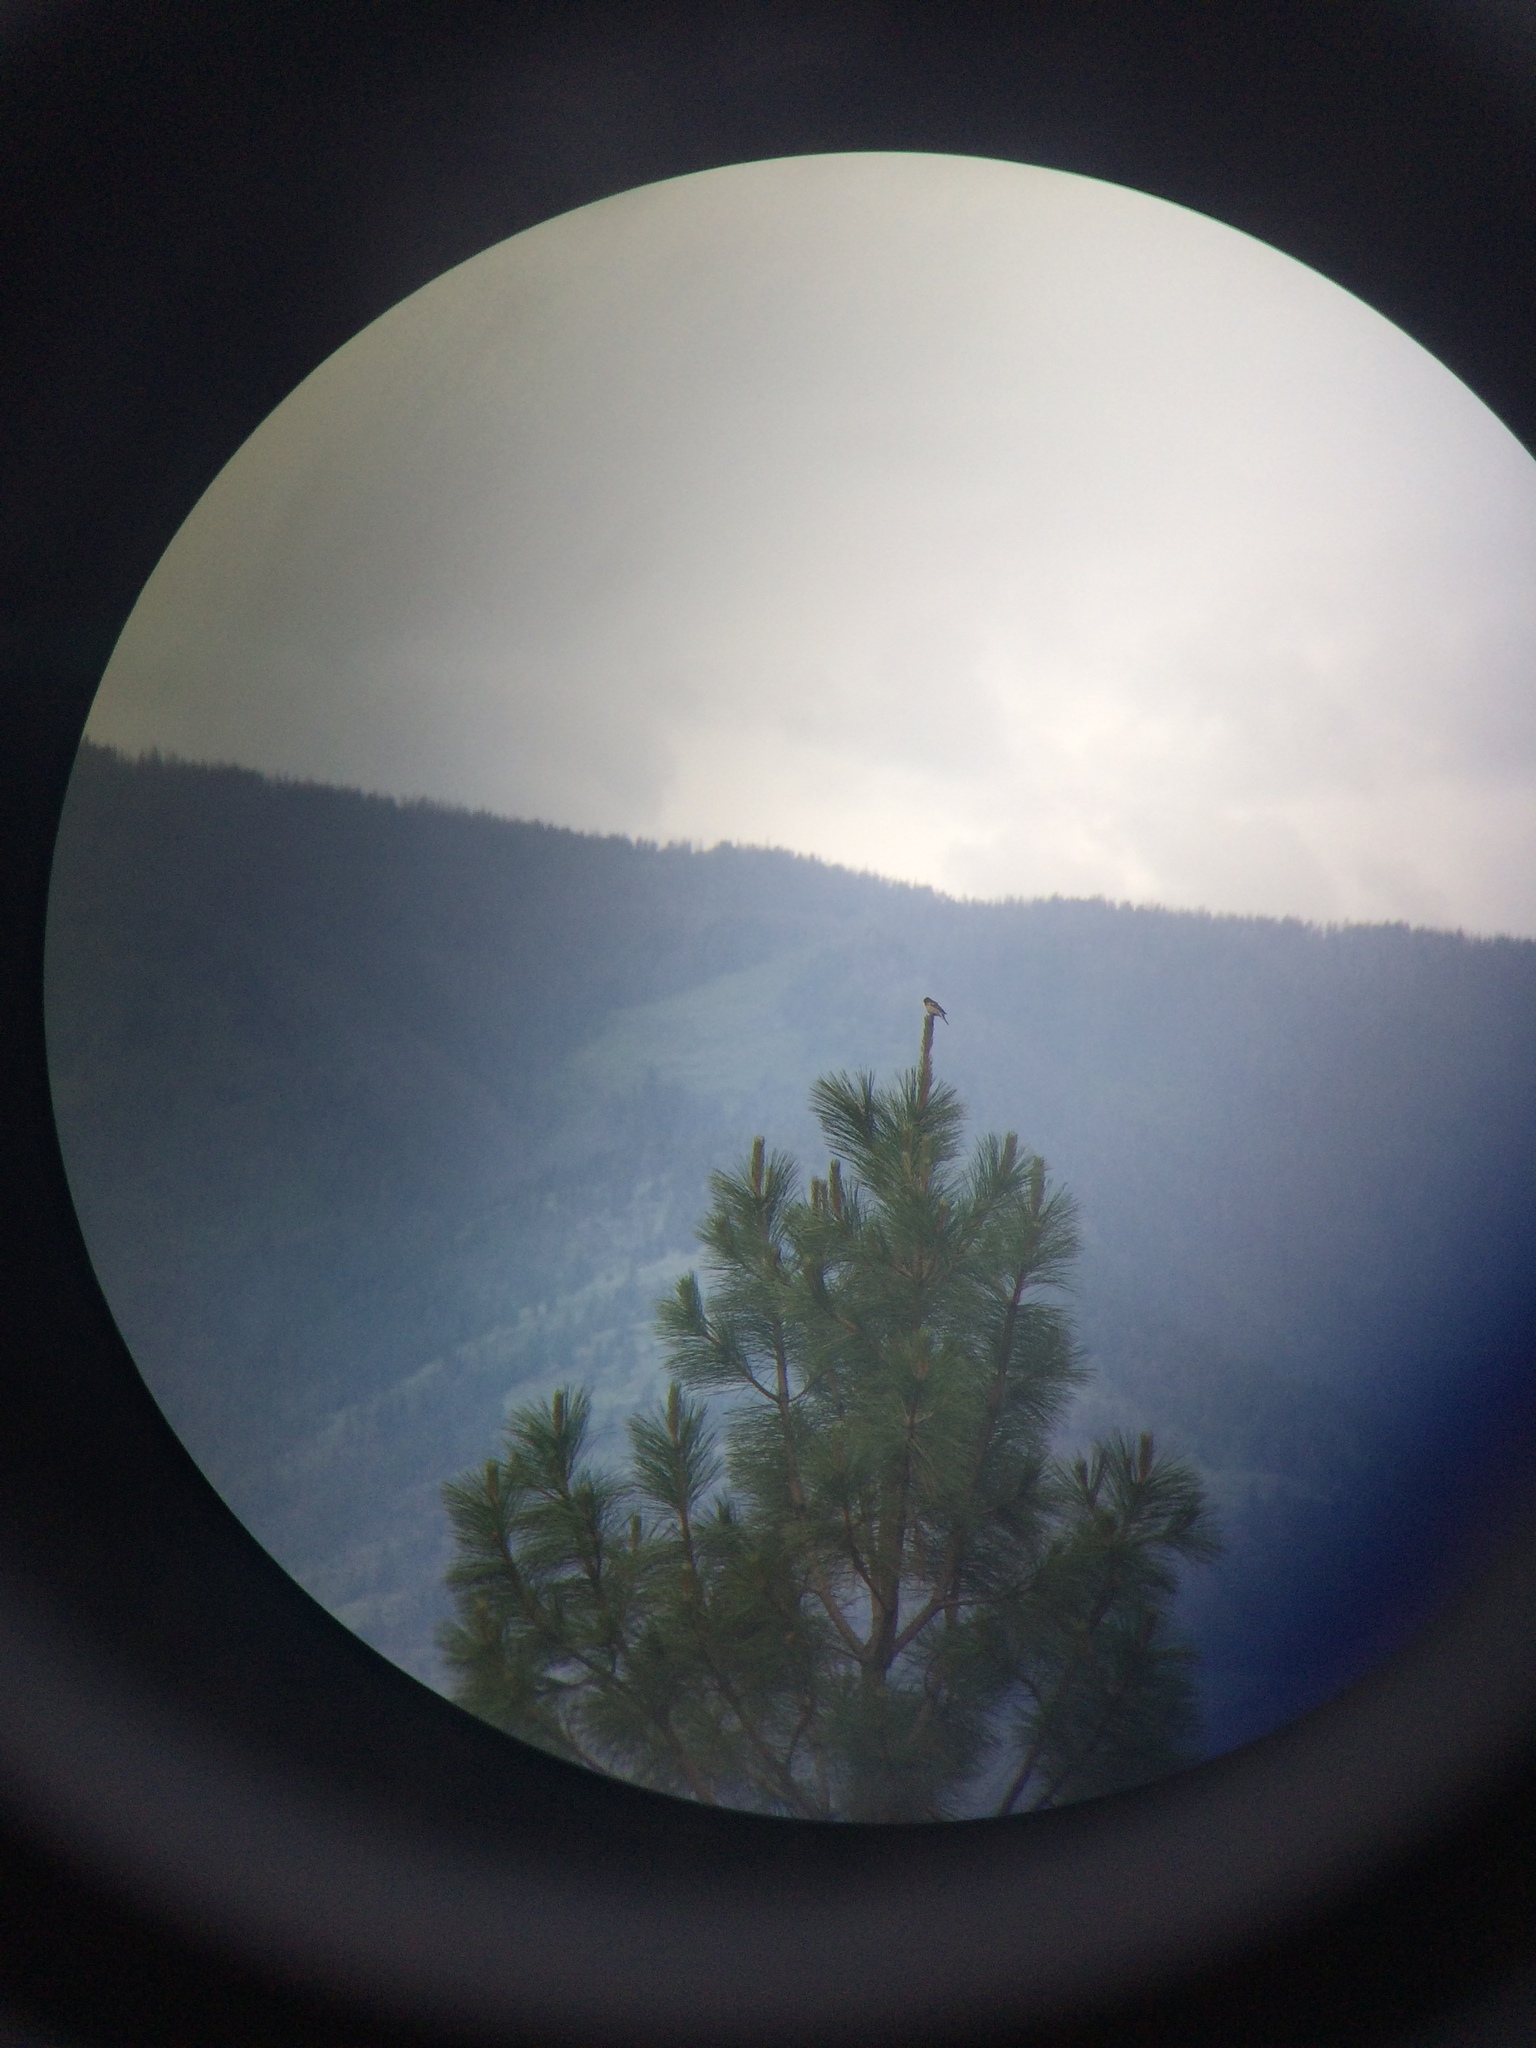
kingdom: Animalia
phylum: Chordata
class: Aves
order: Passeriformes
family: Cardinalidae
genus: Passerina
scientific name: Passerina amoena
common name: Lazuli bunting
